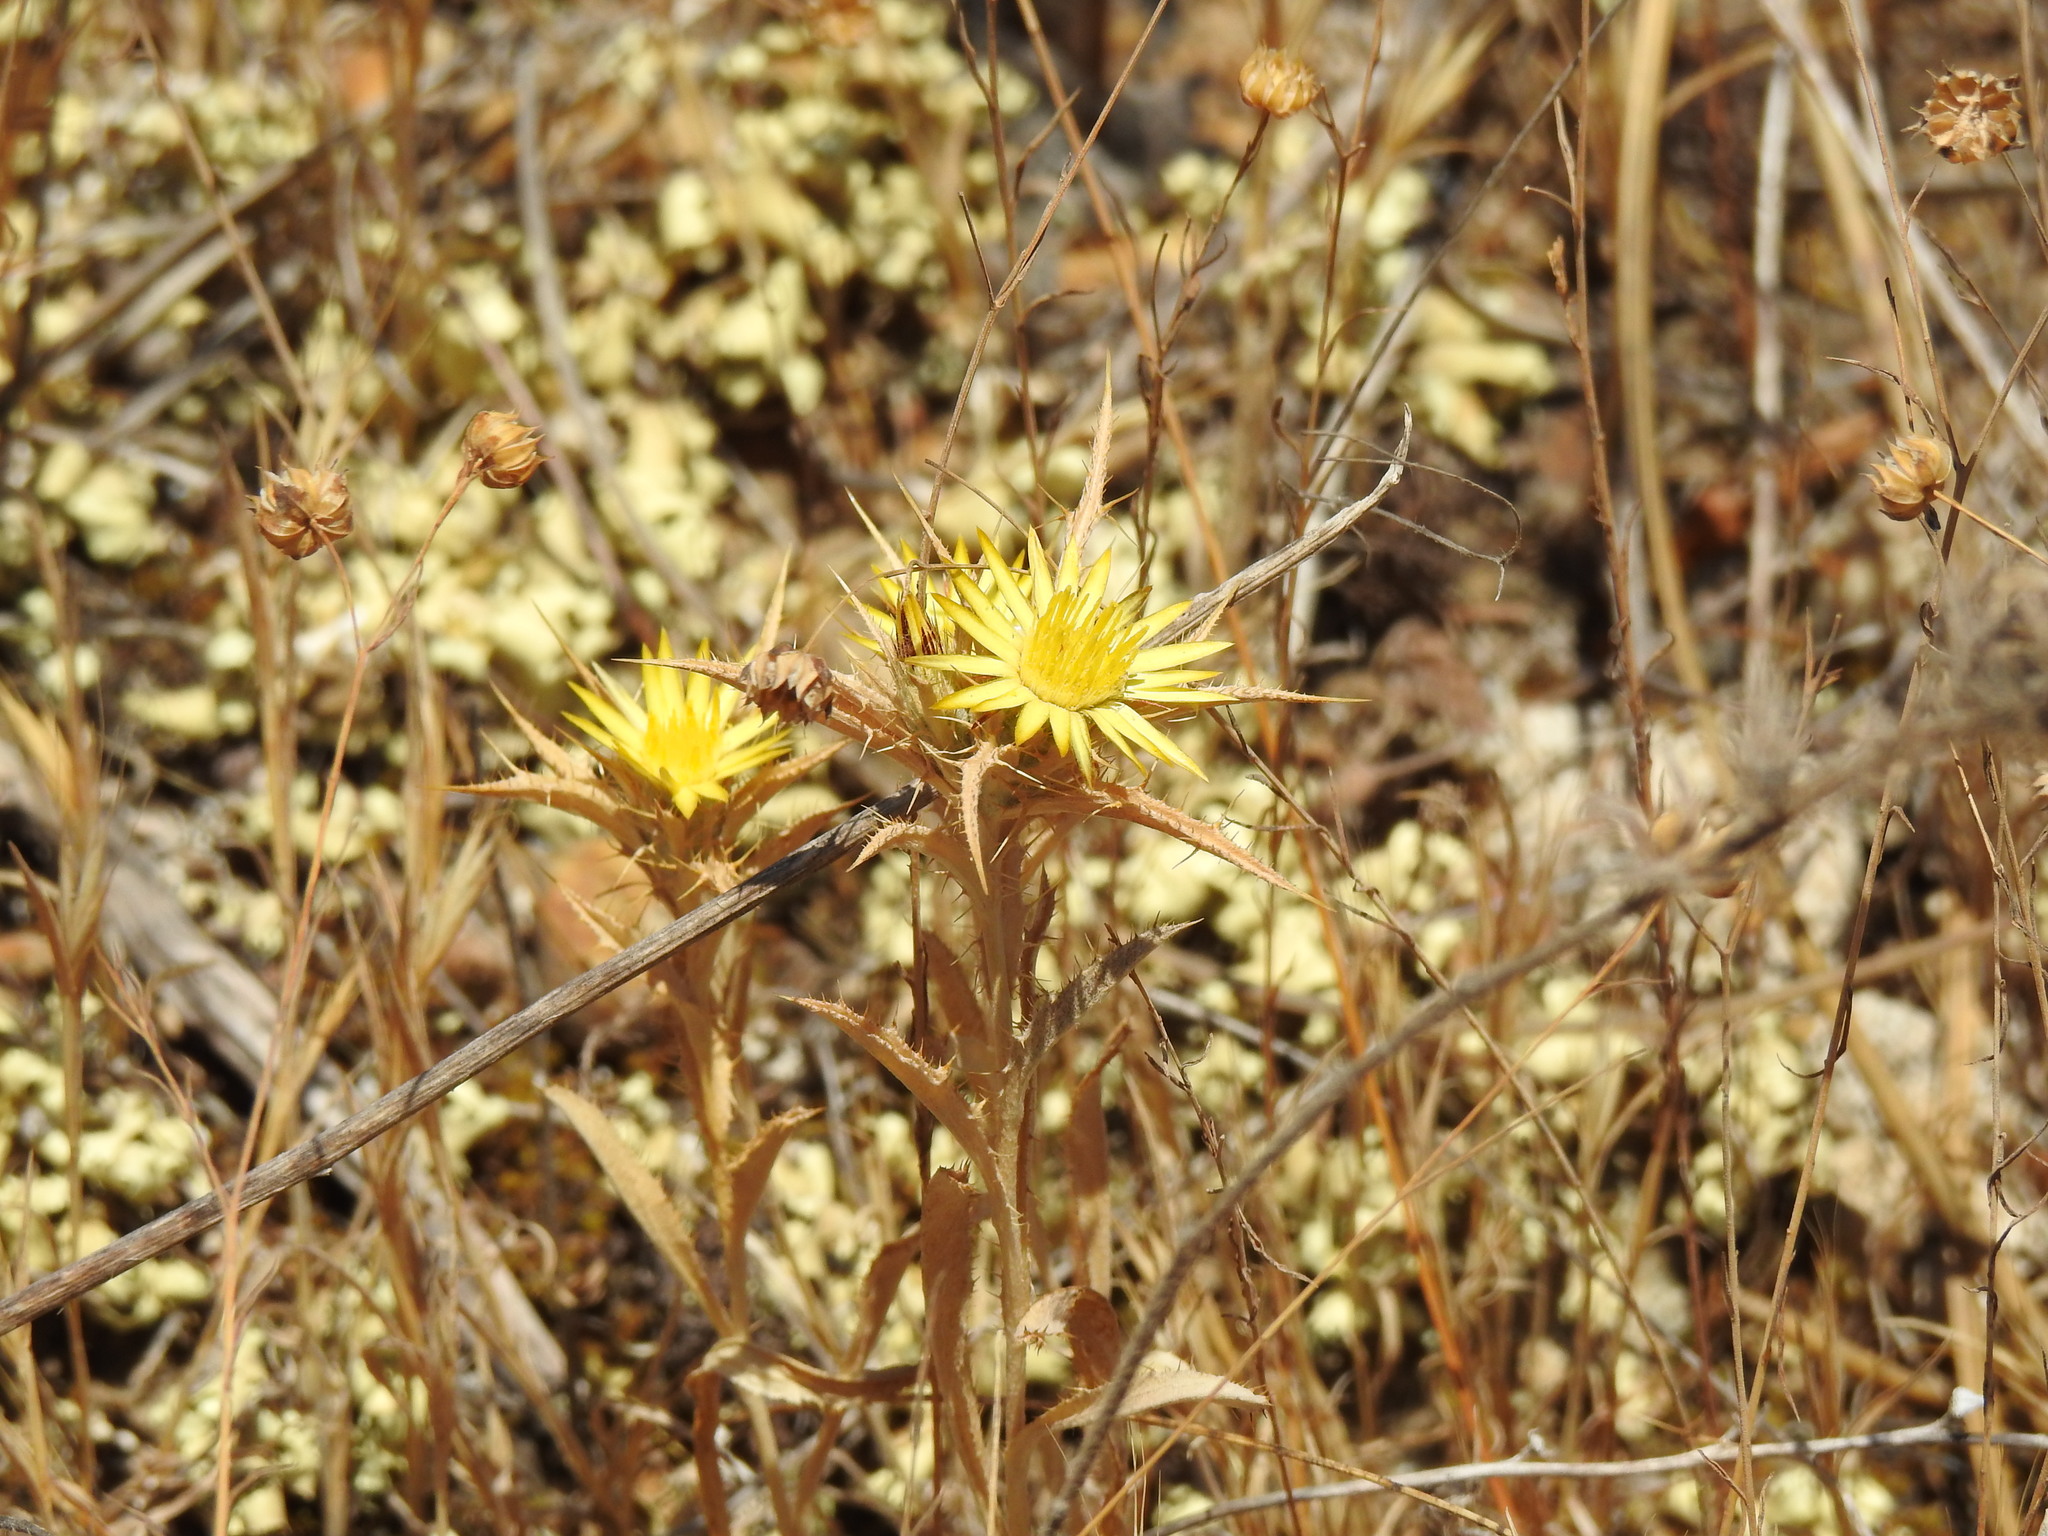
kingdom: Plantae
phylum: Tracheophyta
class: Magnoliopsida
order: Asterales
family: Asteraceae
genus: Carlina
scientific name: Carlina racemosa
